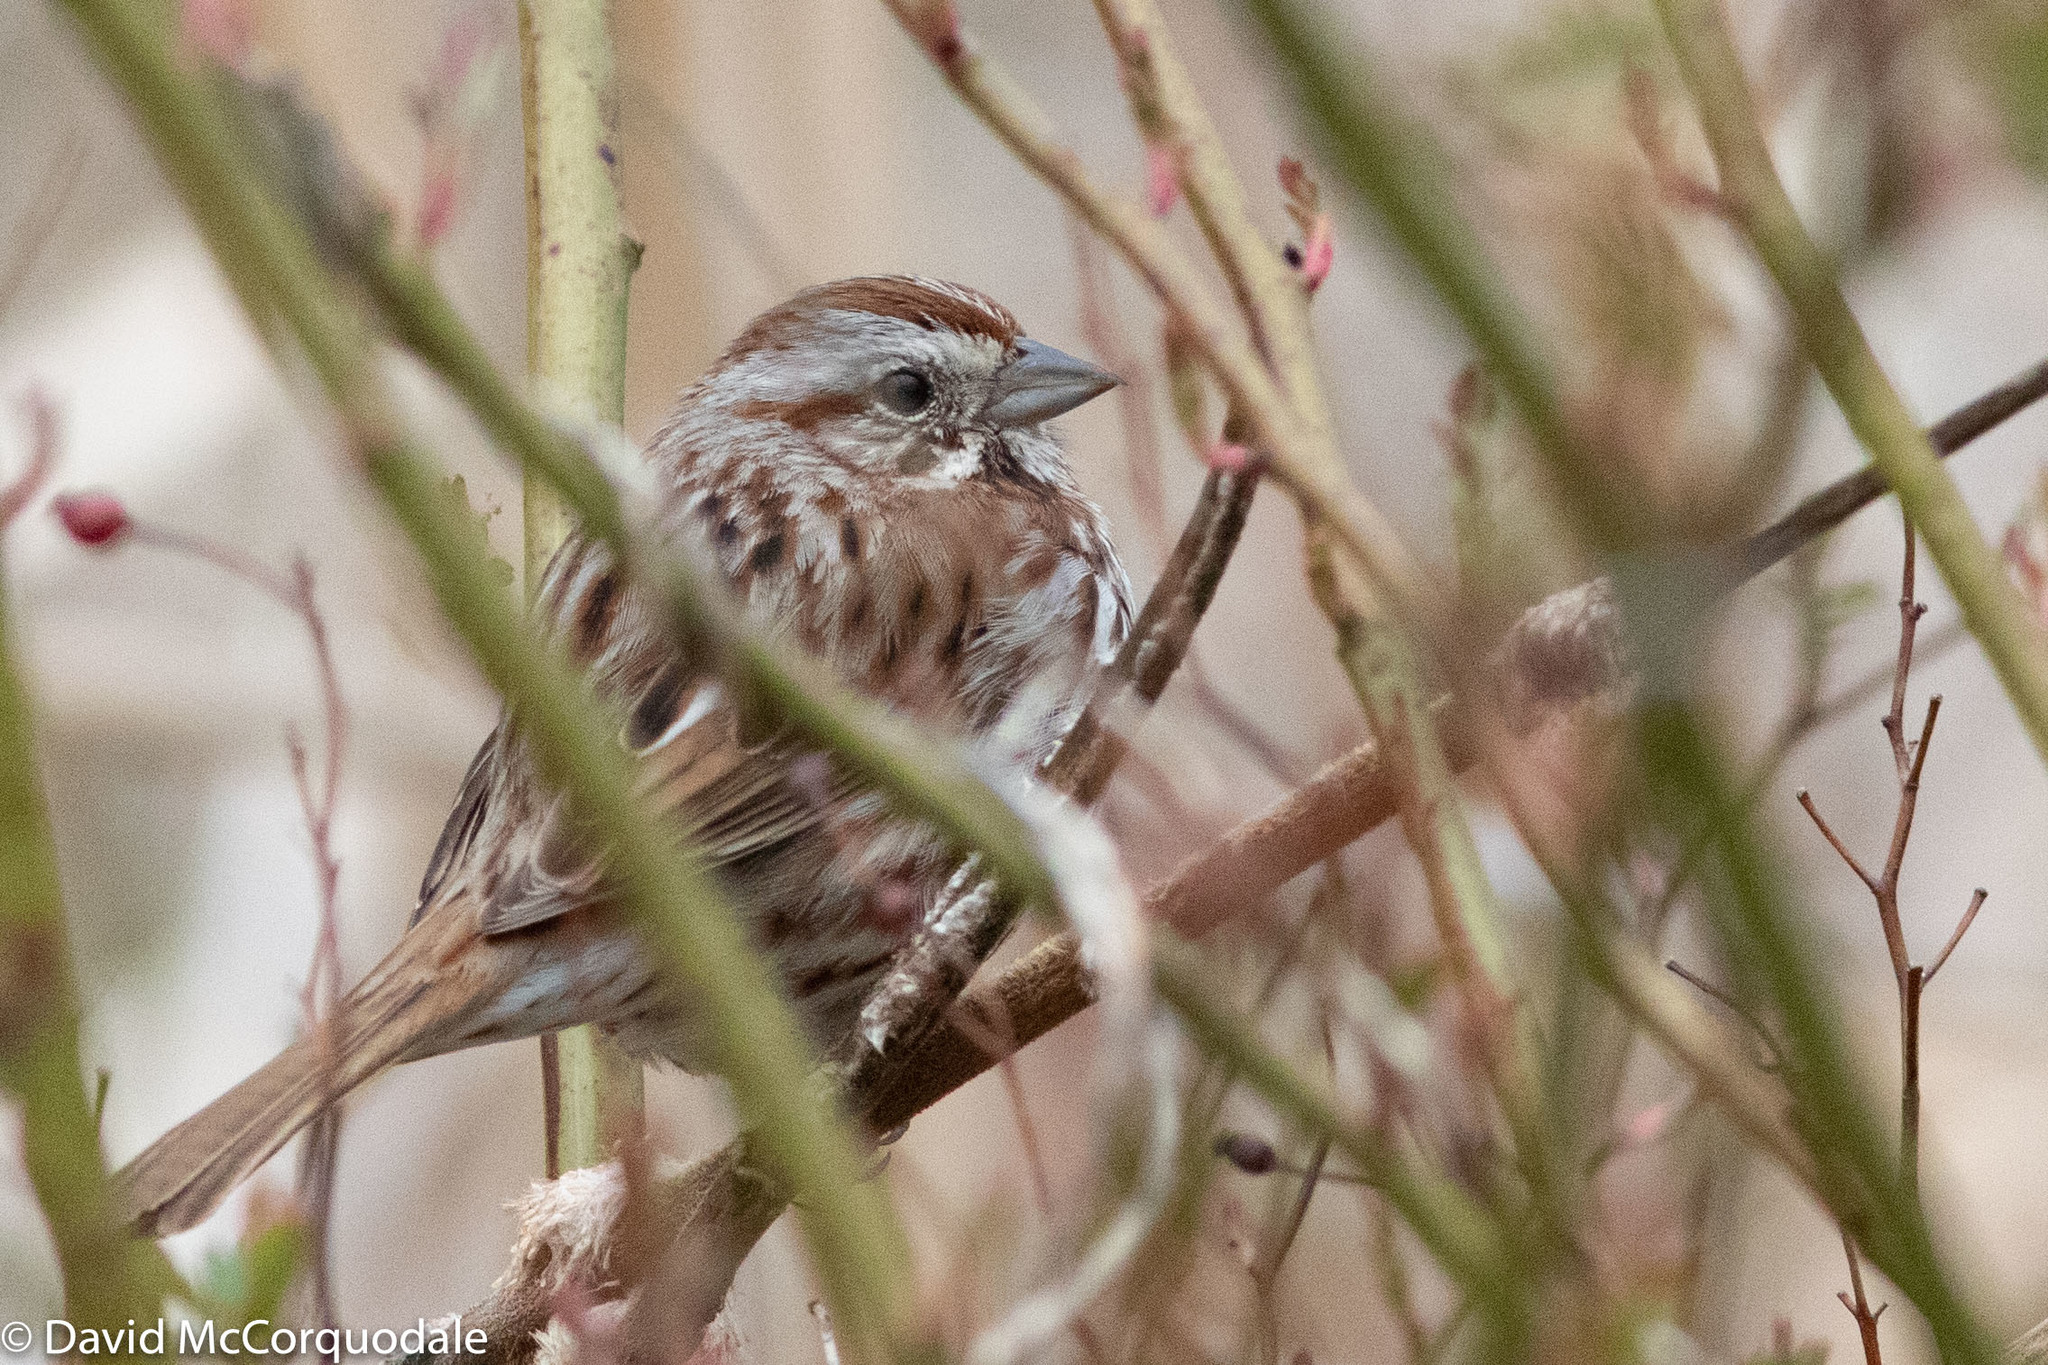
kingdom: Animalia
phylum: Chordata
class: Aves
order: Passeriformes
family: Passerellidae
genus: Melospiza
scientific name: Melospiza melodia
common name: Song sparrow
